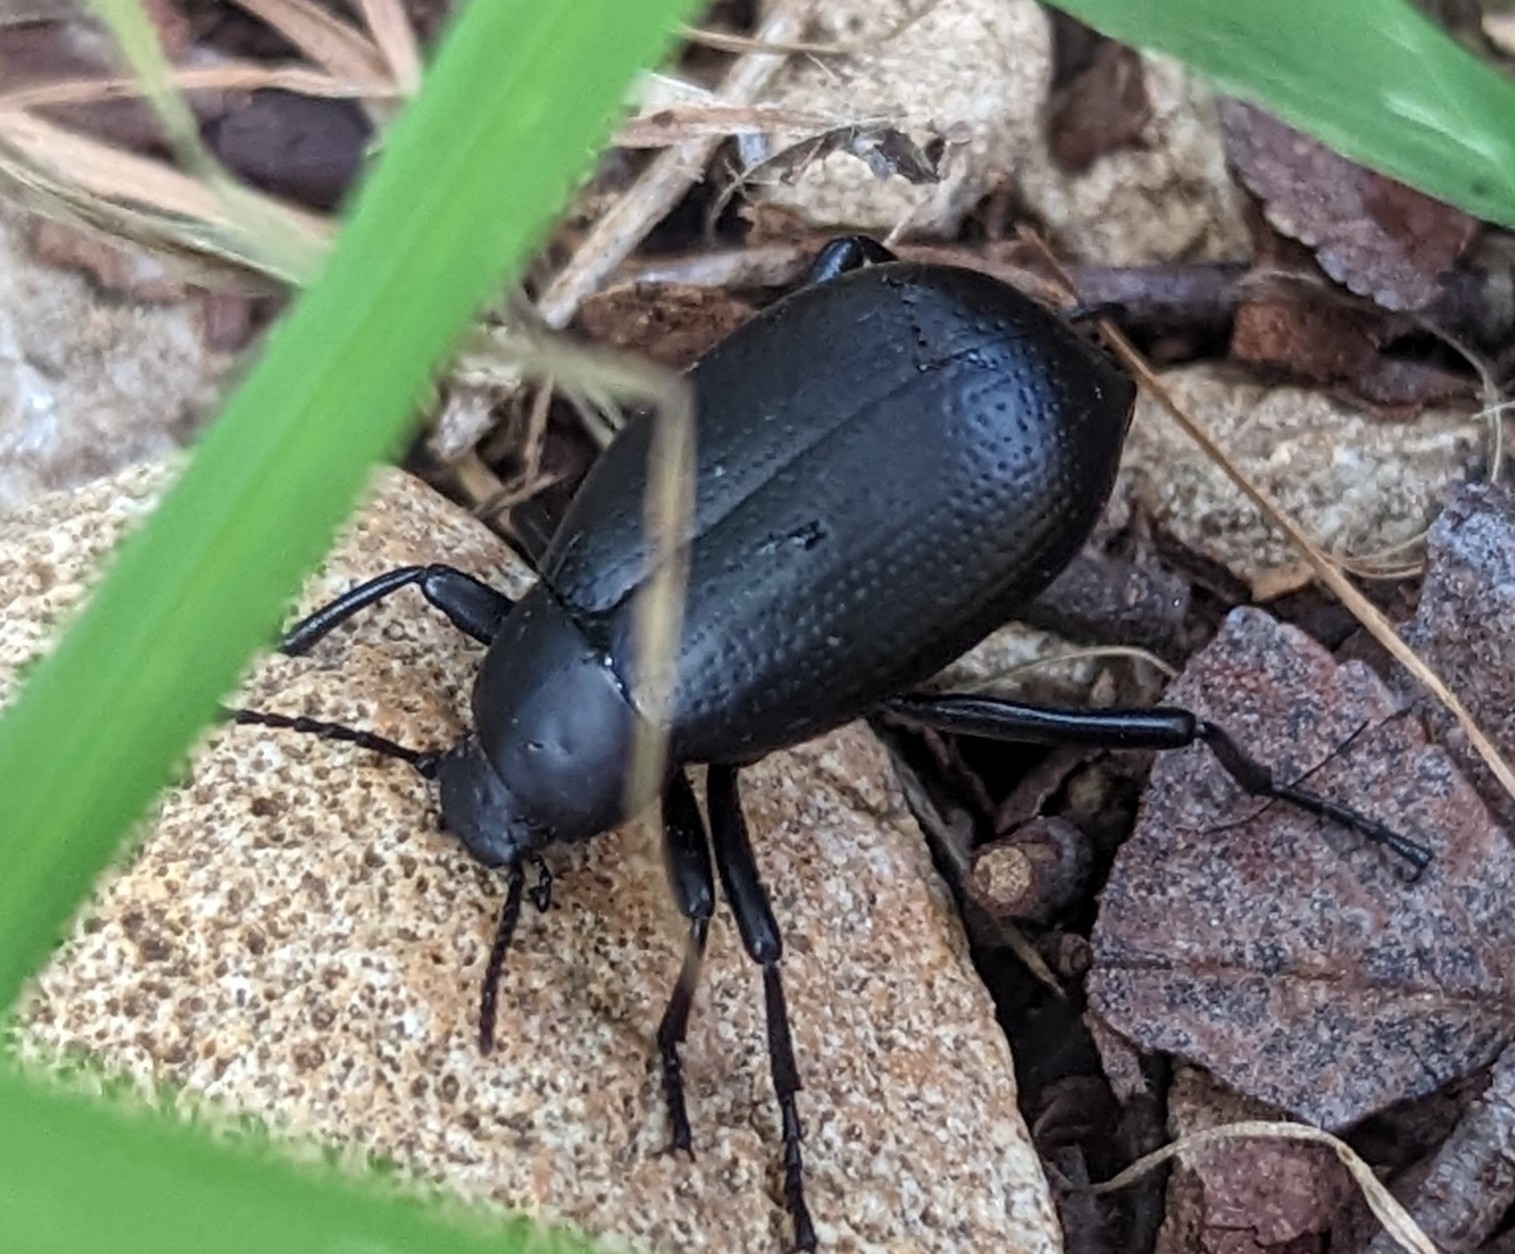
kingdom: Animalia
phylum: Arthropoda
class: Insecta
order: Coleoptera
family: Tenebrionidae
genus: Eleodes
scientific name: Eleodes goryi
